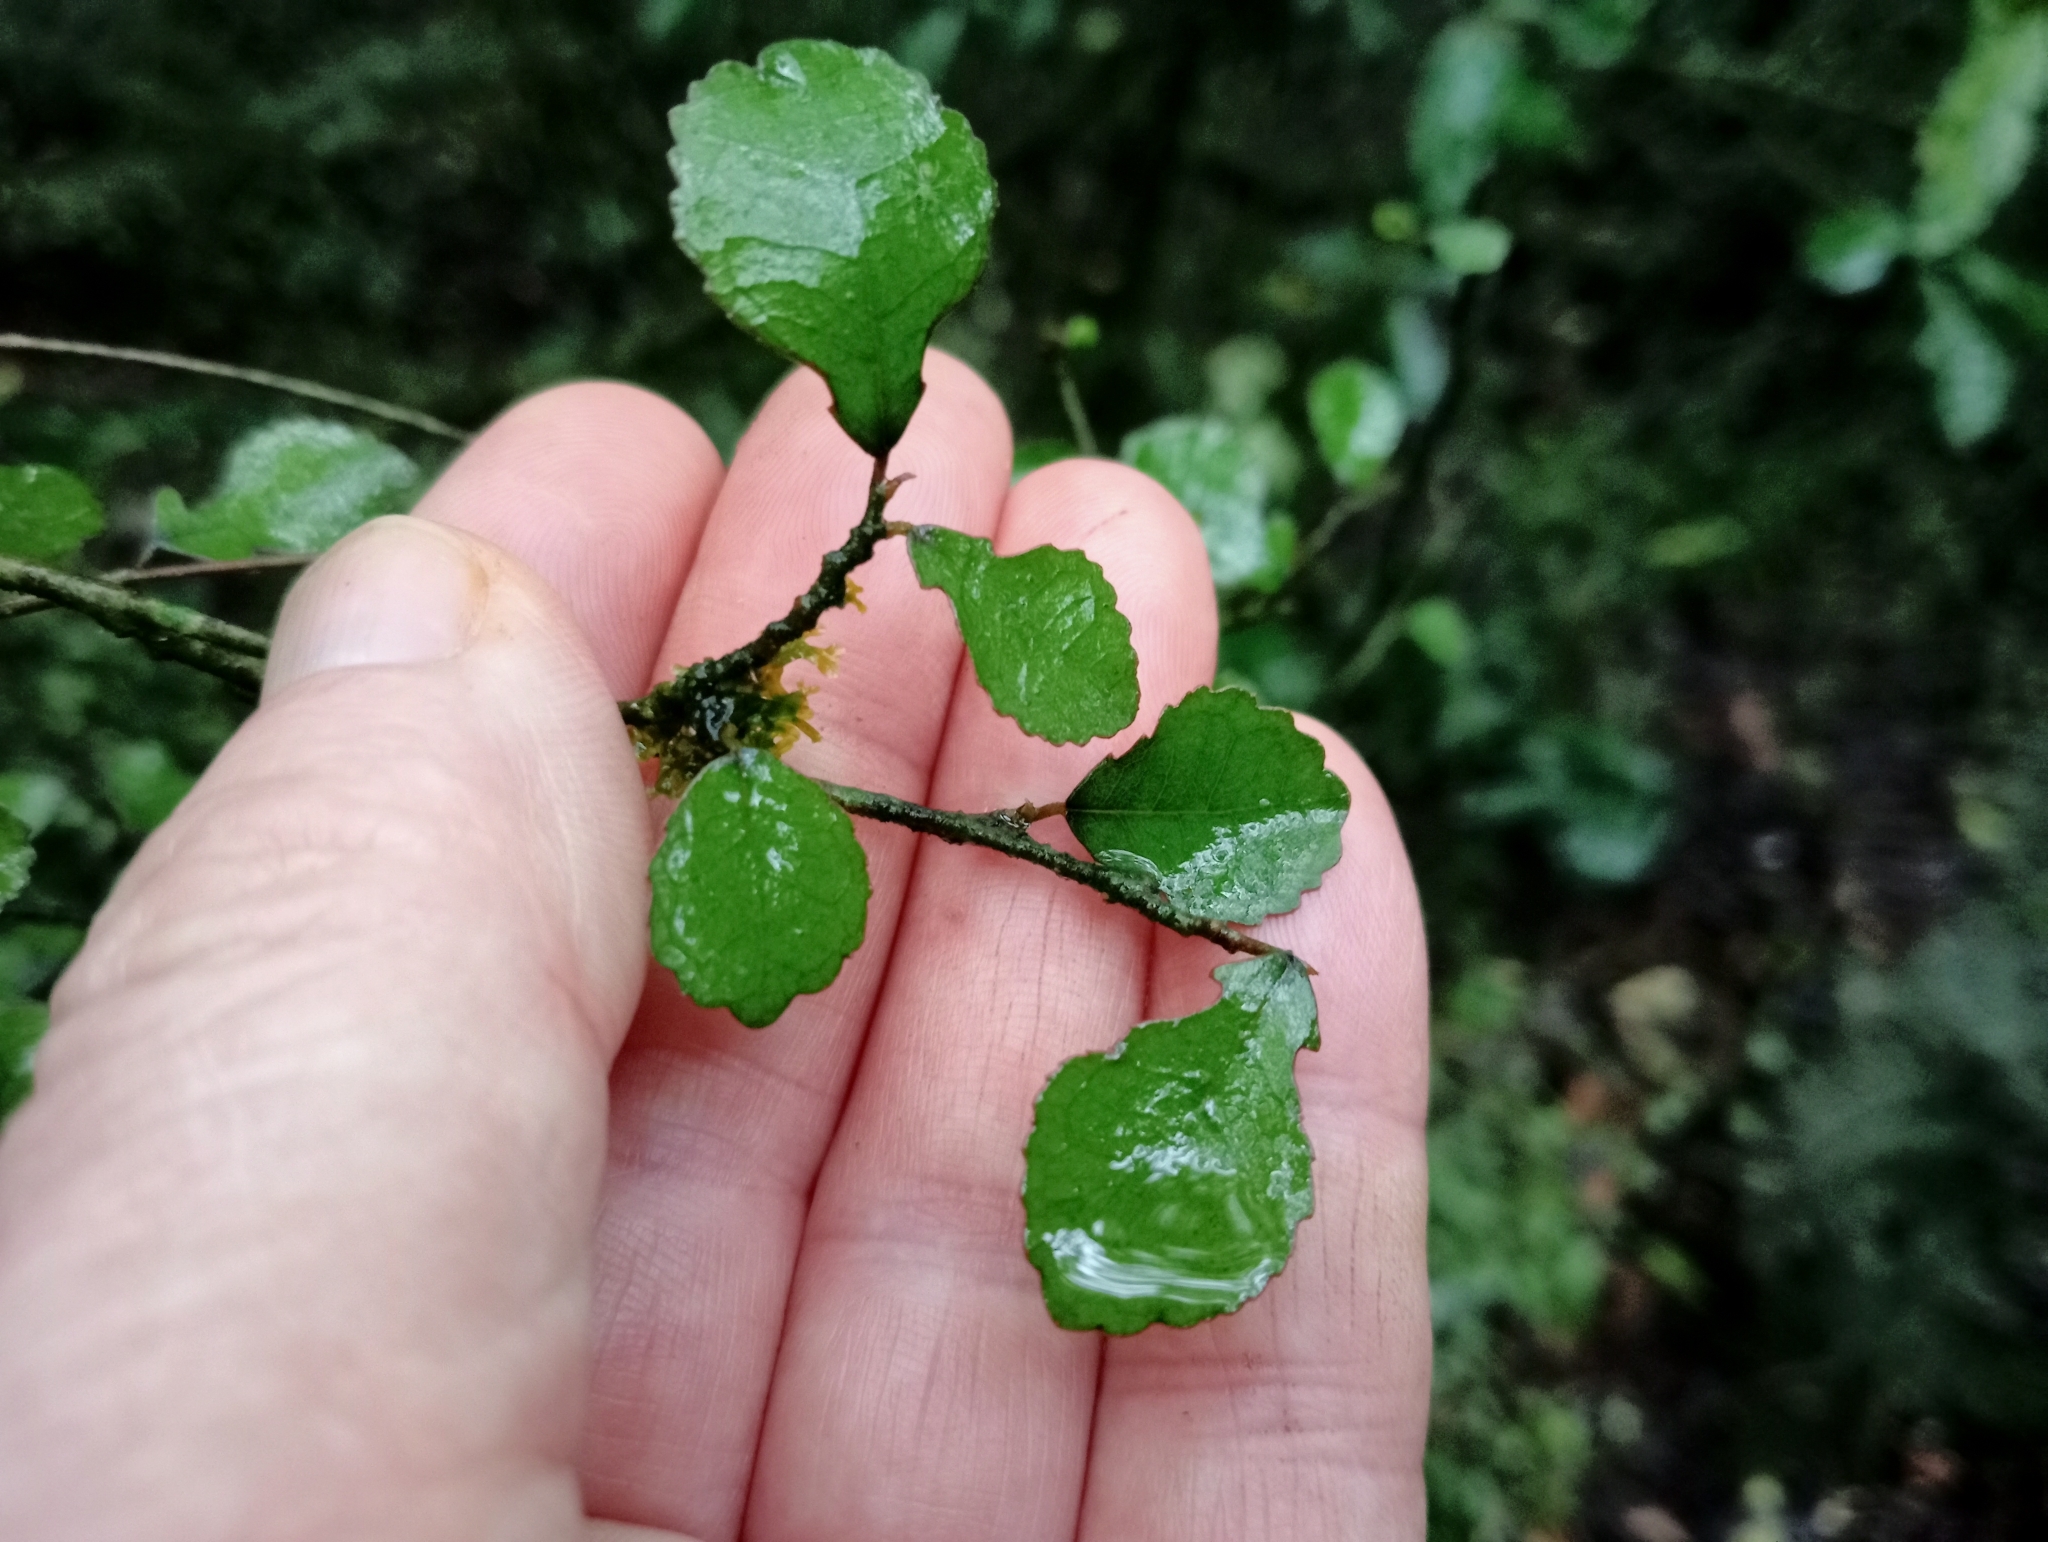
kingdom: Plantae
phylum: Tracheophyta
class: Magnoliopsida
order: Rosales
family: Moraceae
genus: Paratrophis
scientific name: Paratrophis microphylla
